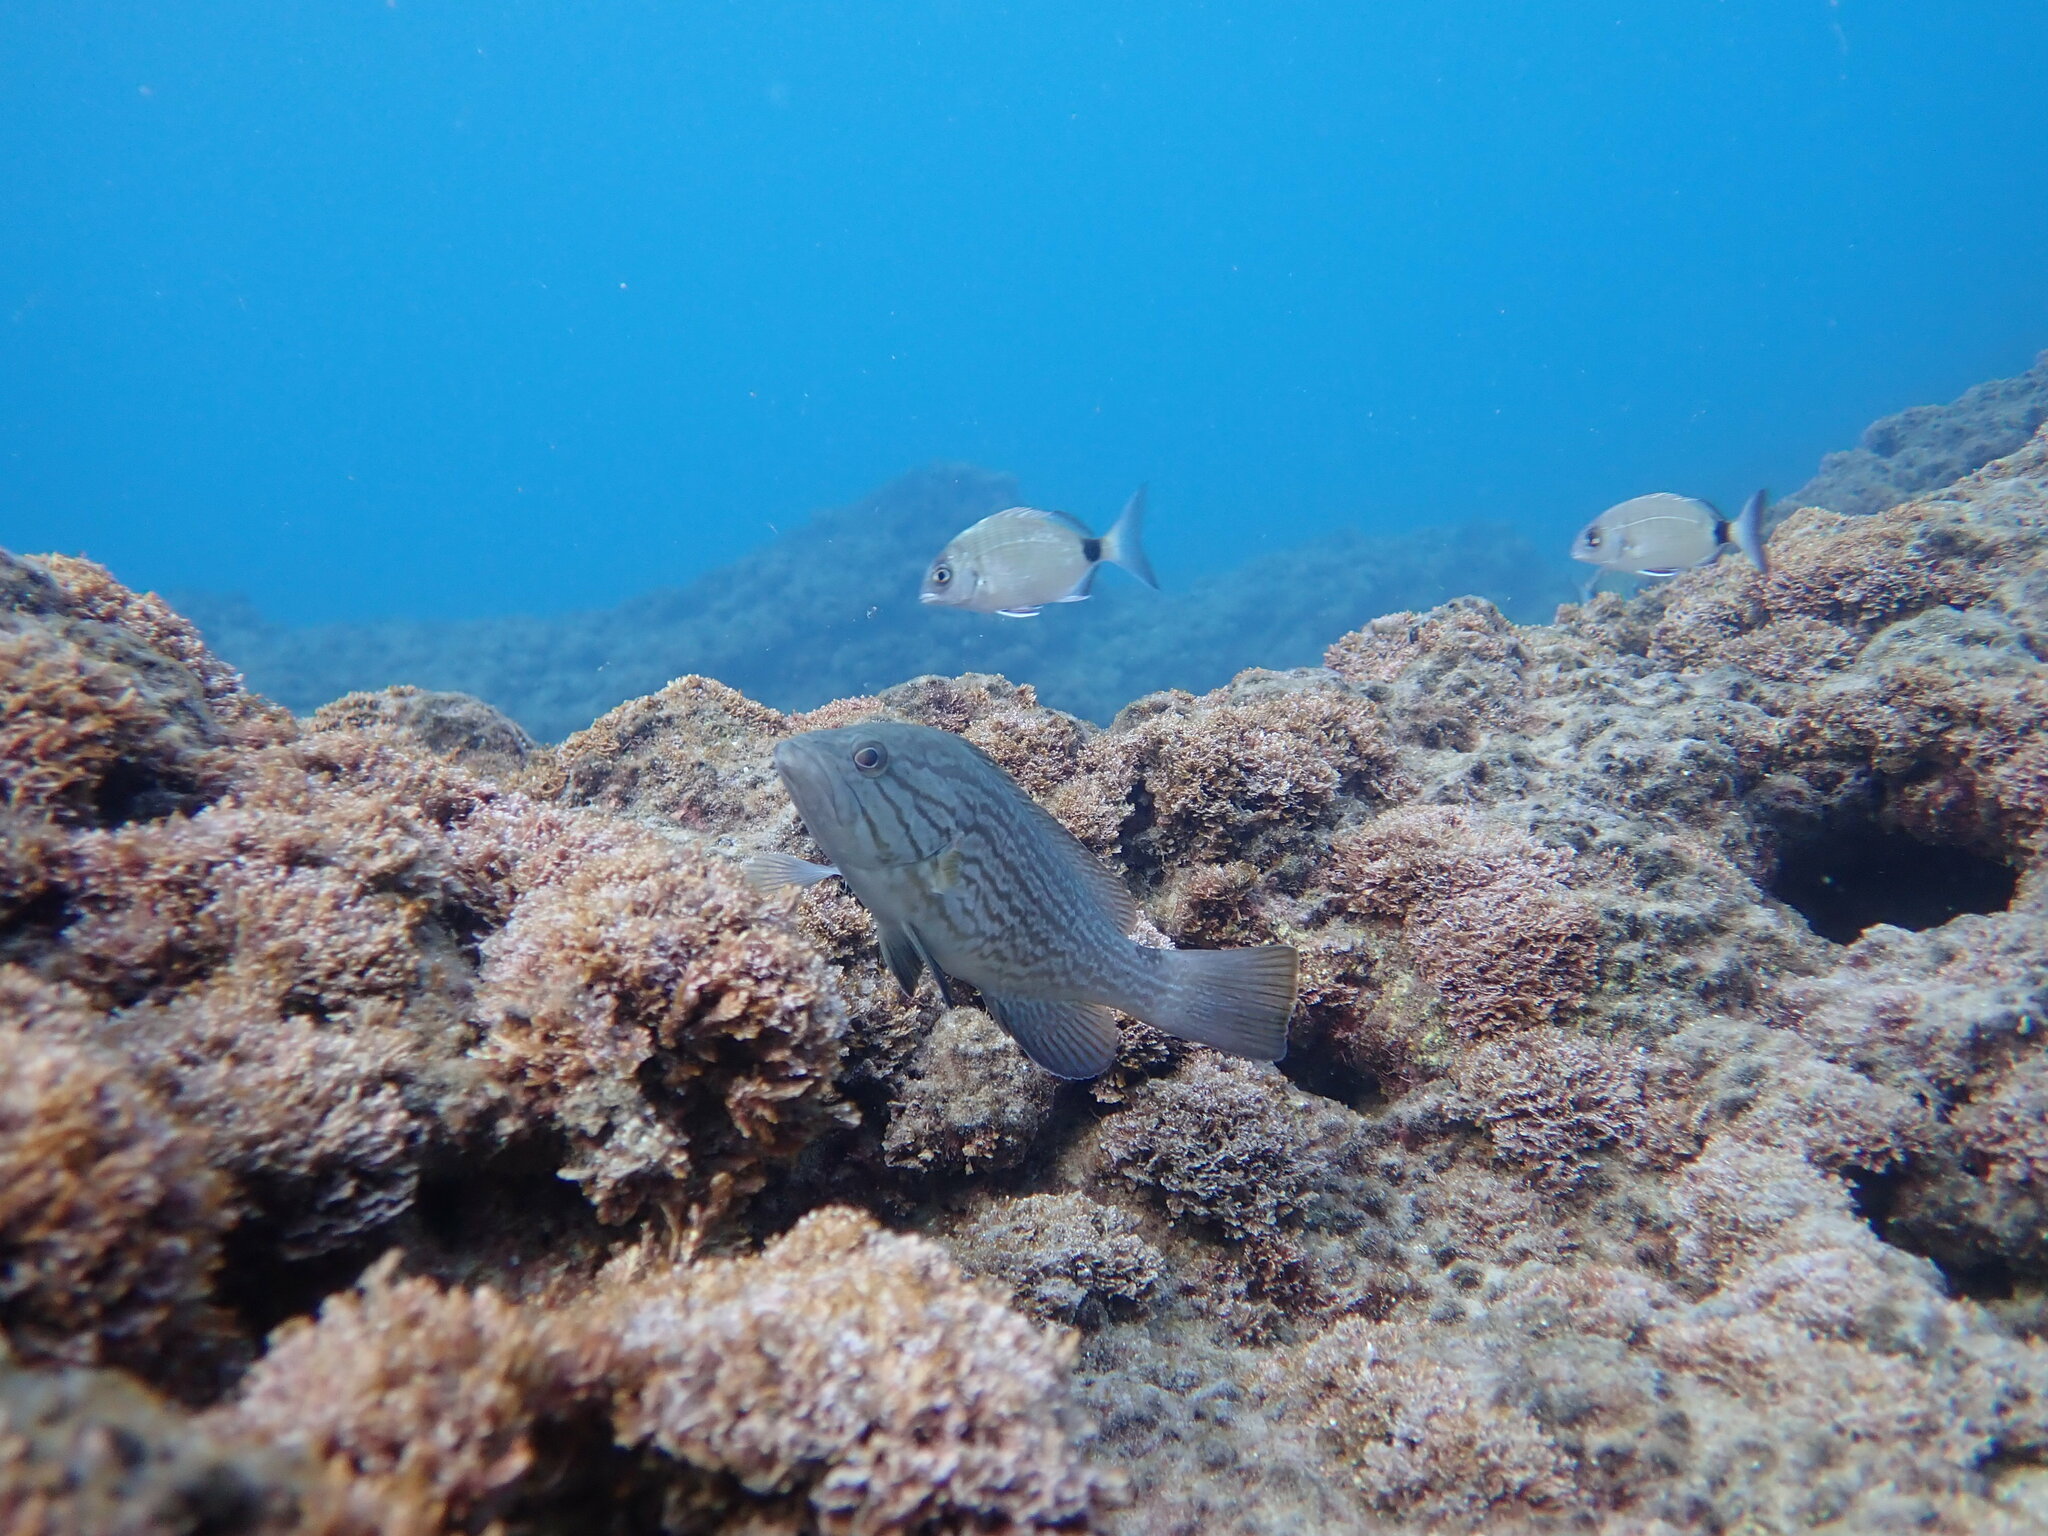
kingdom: Animalia
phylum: Chordata
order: Perciformes
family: Serranidae
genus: Mycteroperca
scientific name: Mycteroperca rubra
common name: Comb grouper
